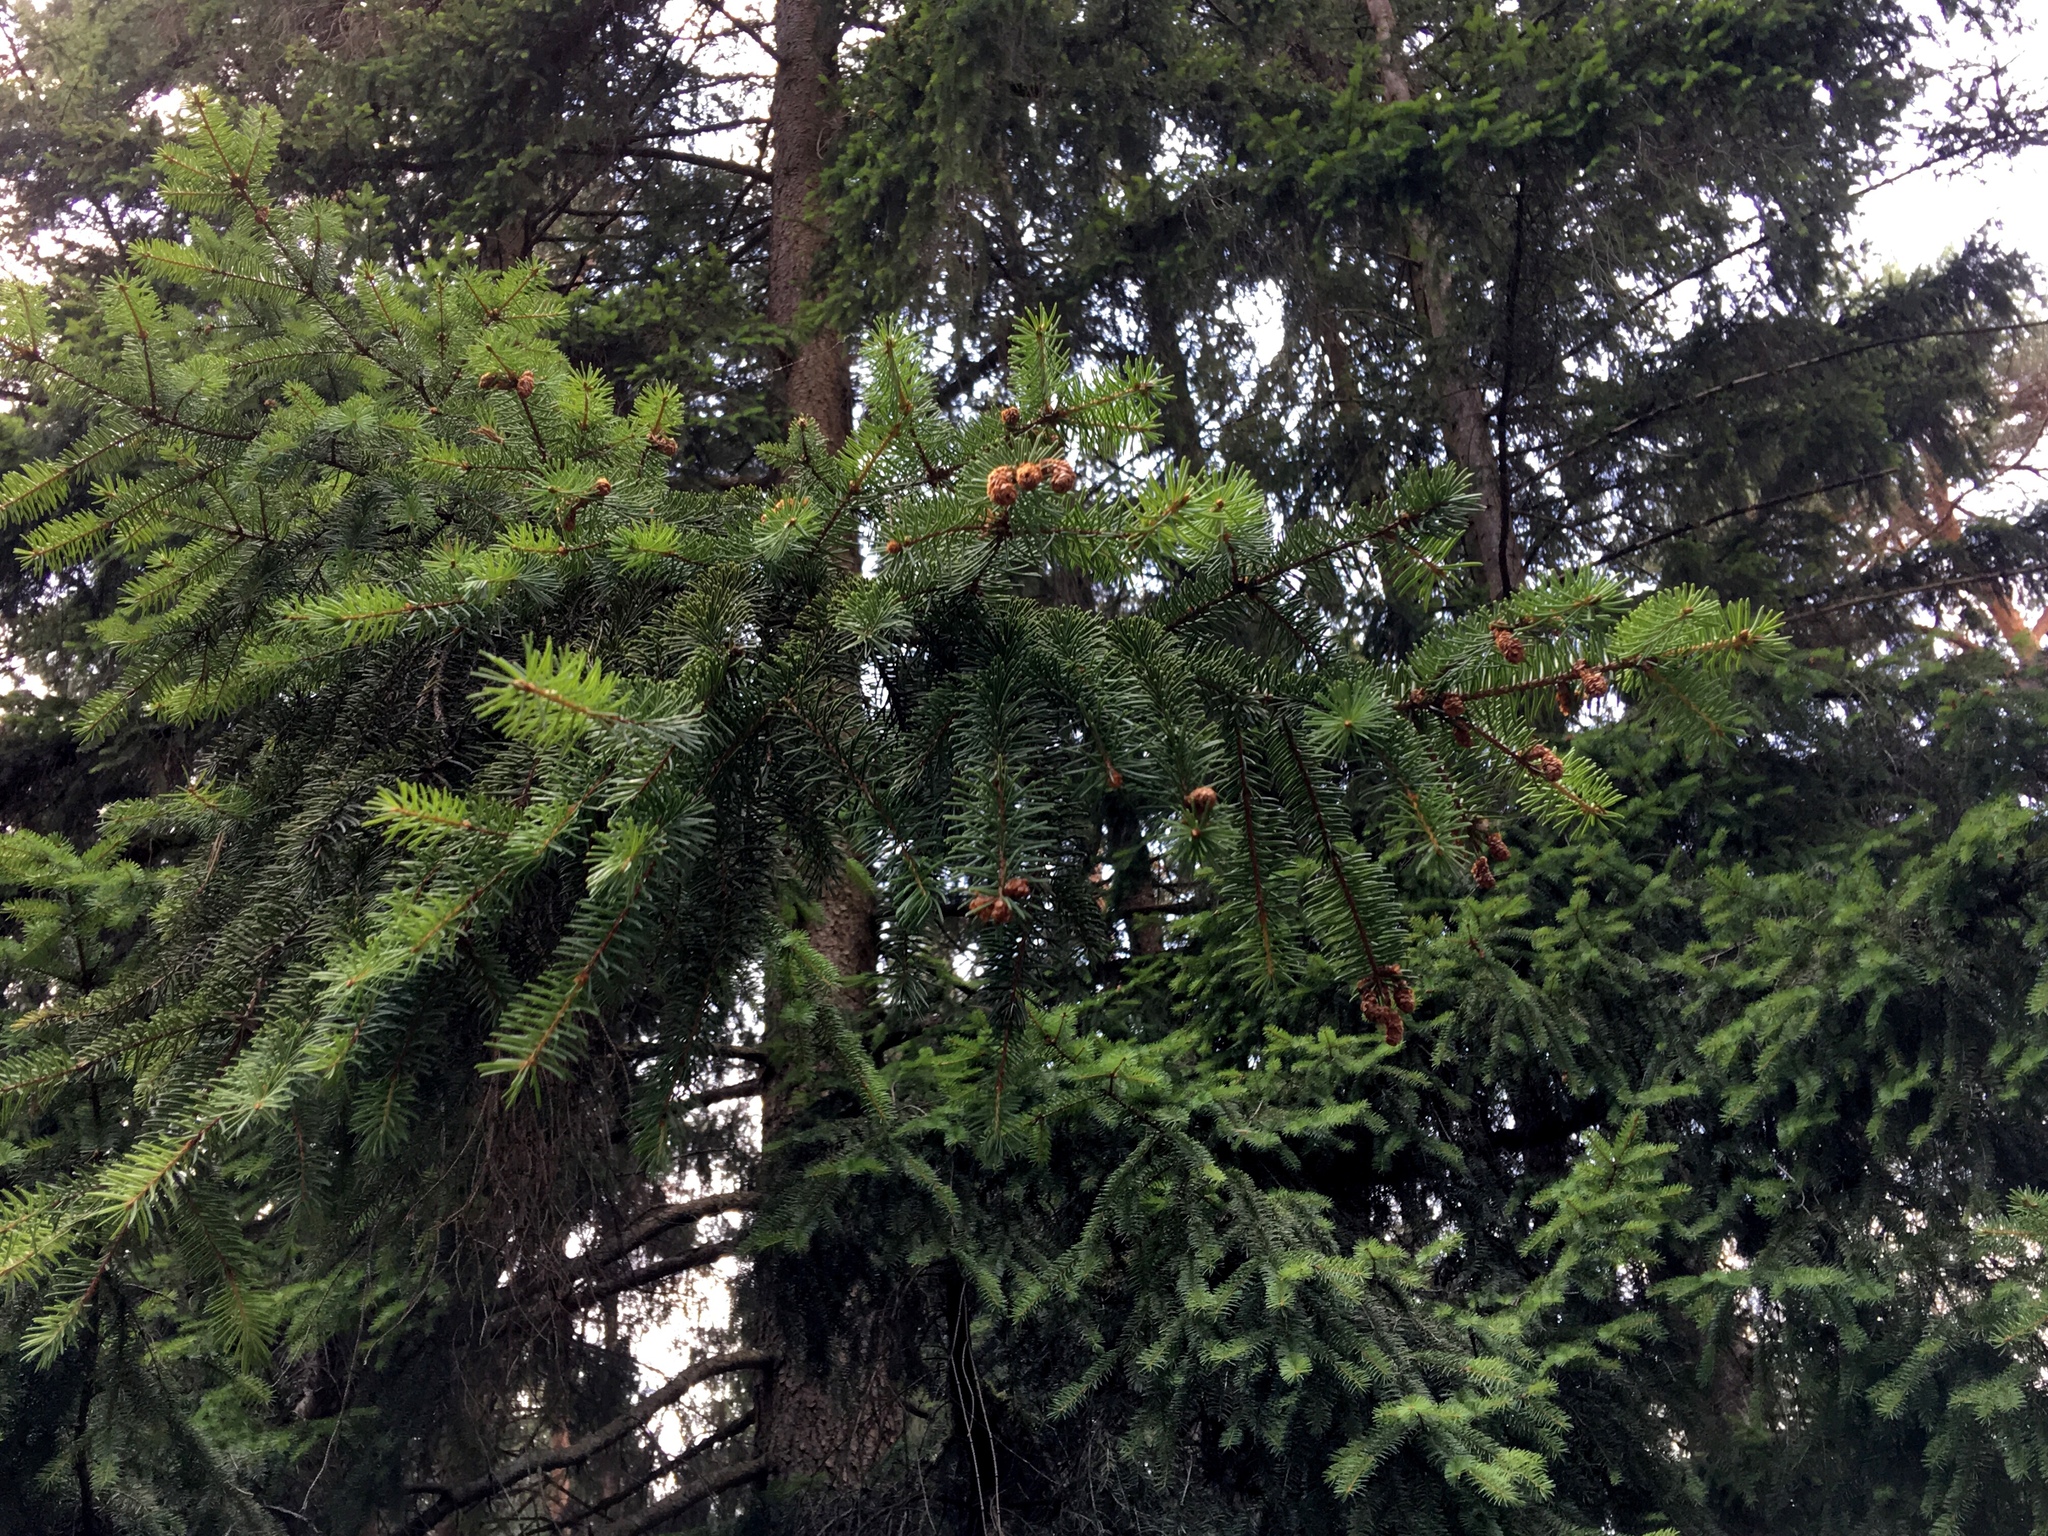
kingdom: Plantae
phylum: Tracheophyta
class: Pinopsida
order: Pinales
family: Pinaceae
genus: Picea
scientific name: Picea abies
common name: Norway spruce
